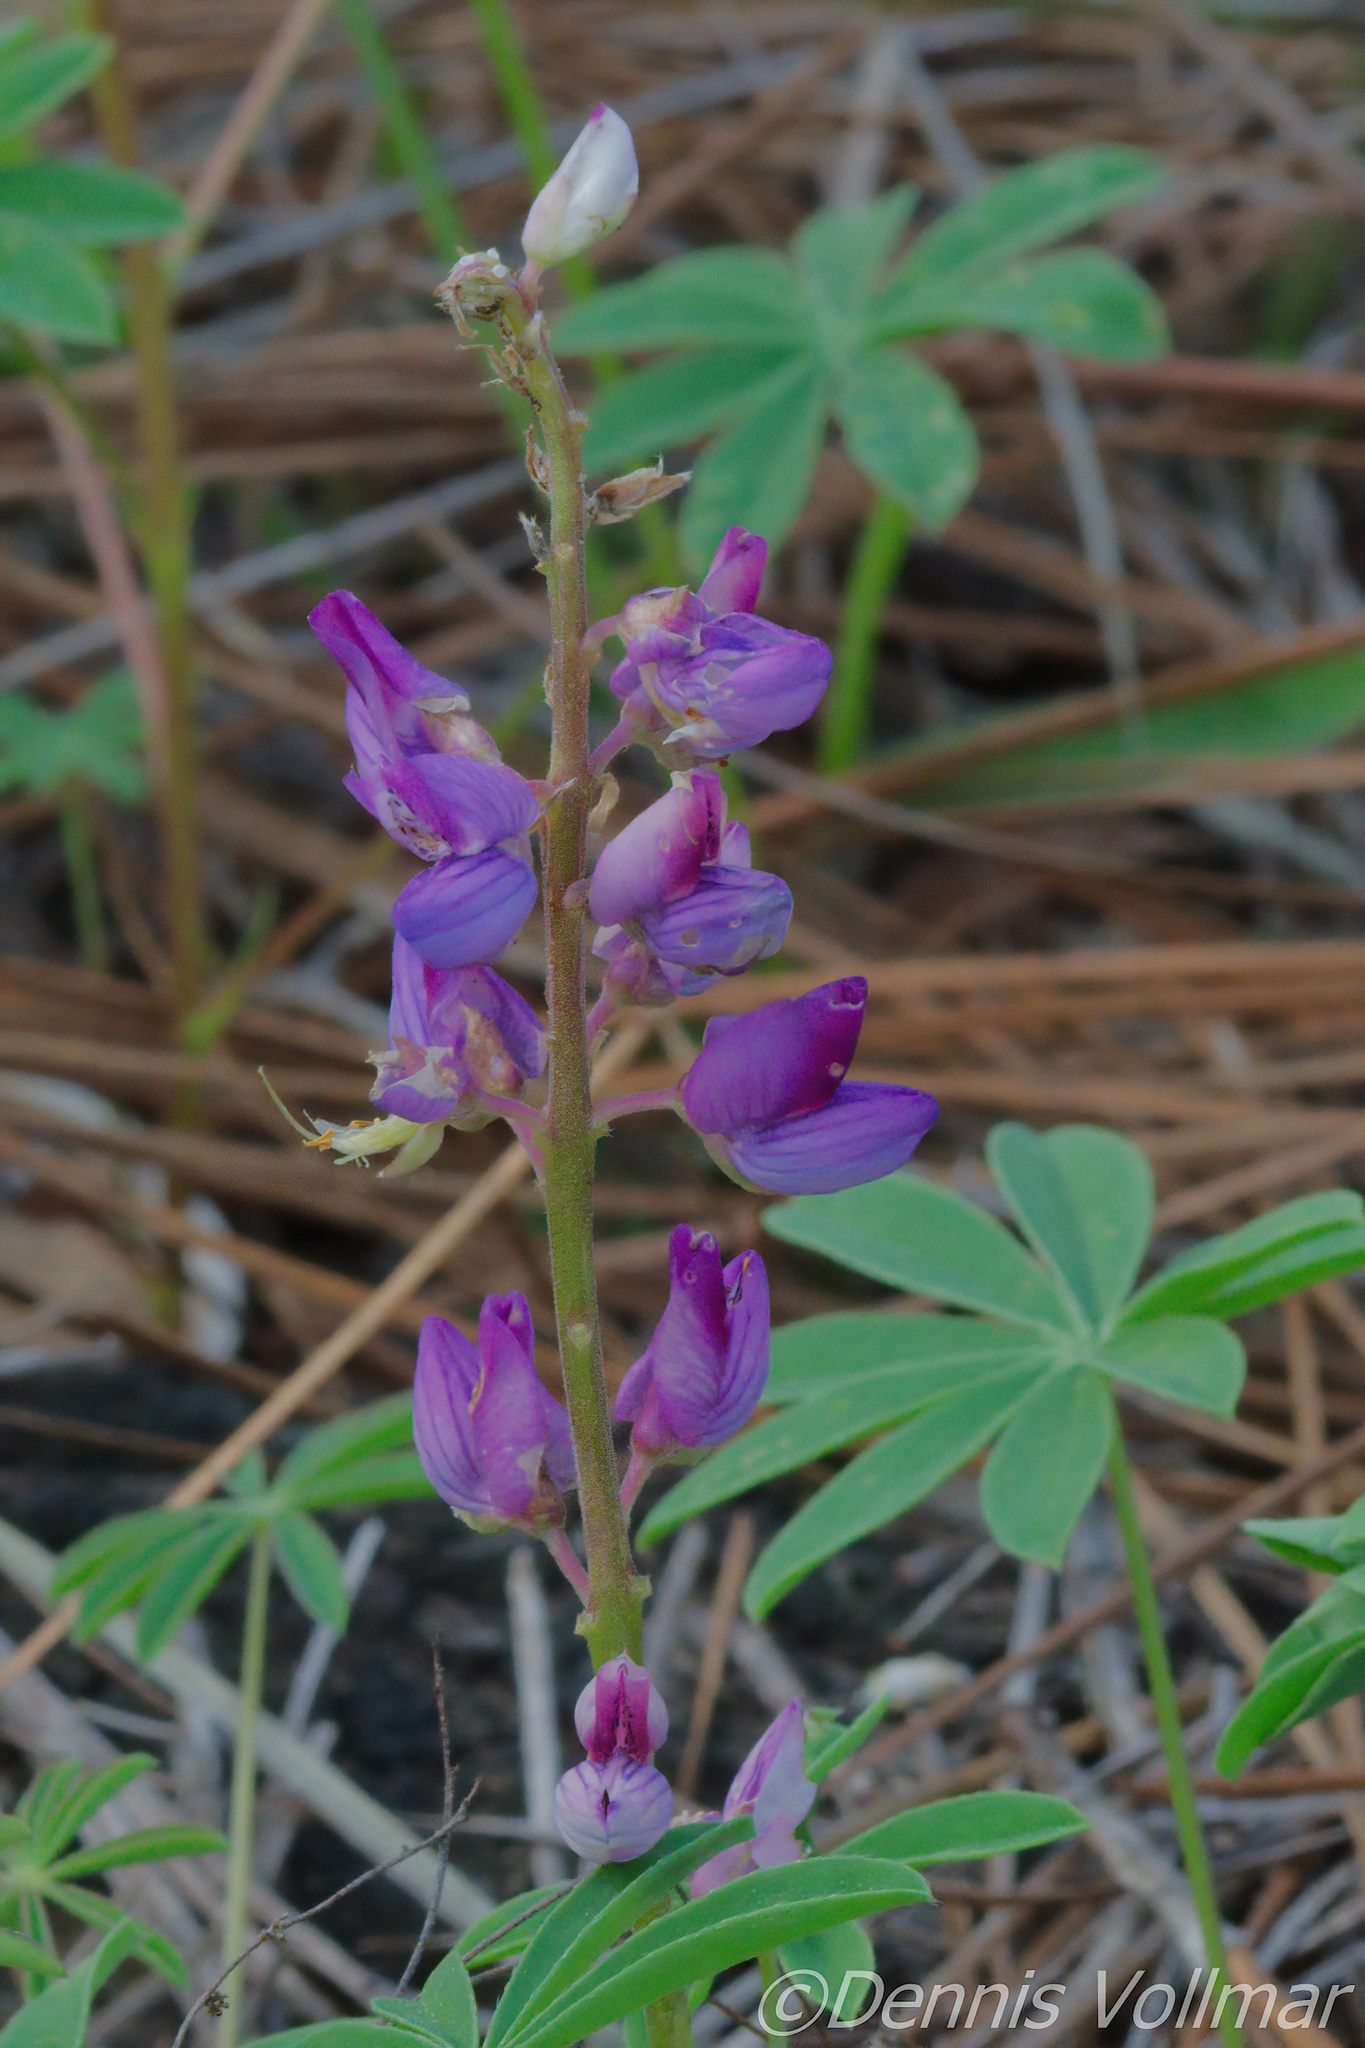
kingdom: Plantae
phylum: Tracheophyta
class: Magnoliopsida
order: Fabales
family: Fabaceae
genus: Lupinus
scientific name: Lupinus perennis
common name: Sundial lupine
